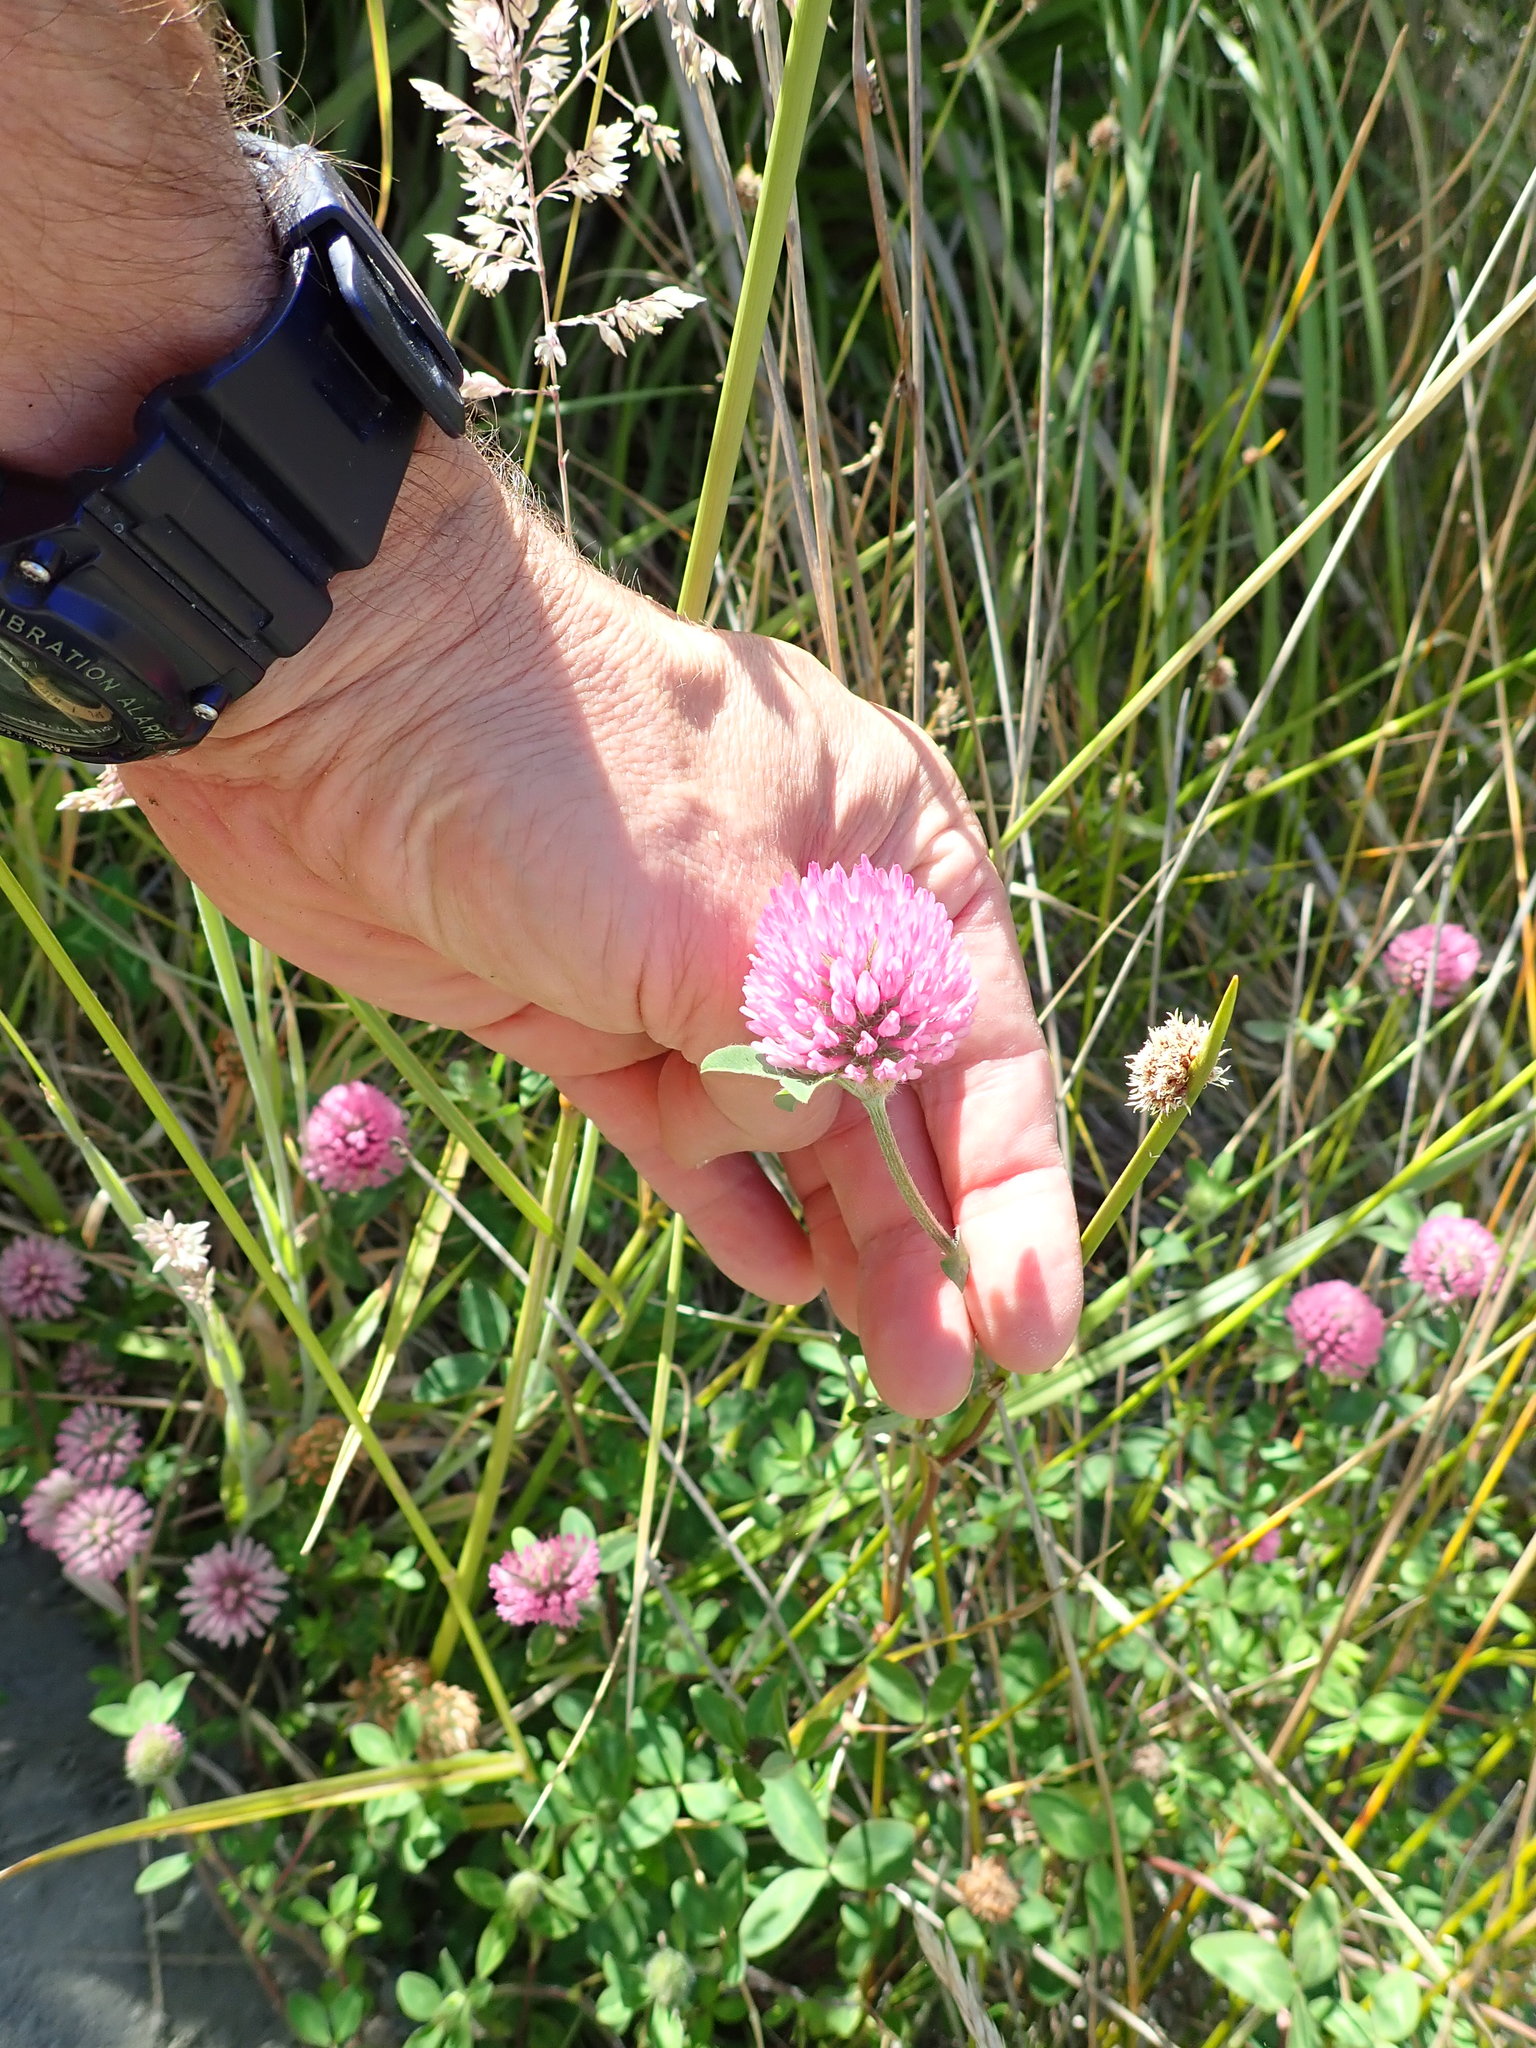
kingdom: Plantae
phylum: Tracheophyta
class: Magnoliopsida
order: Fabales
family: Fabaceae
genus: Trifolium
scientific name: Trifolium pratense
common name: Red clover
